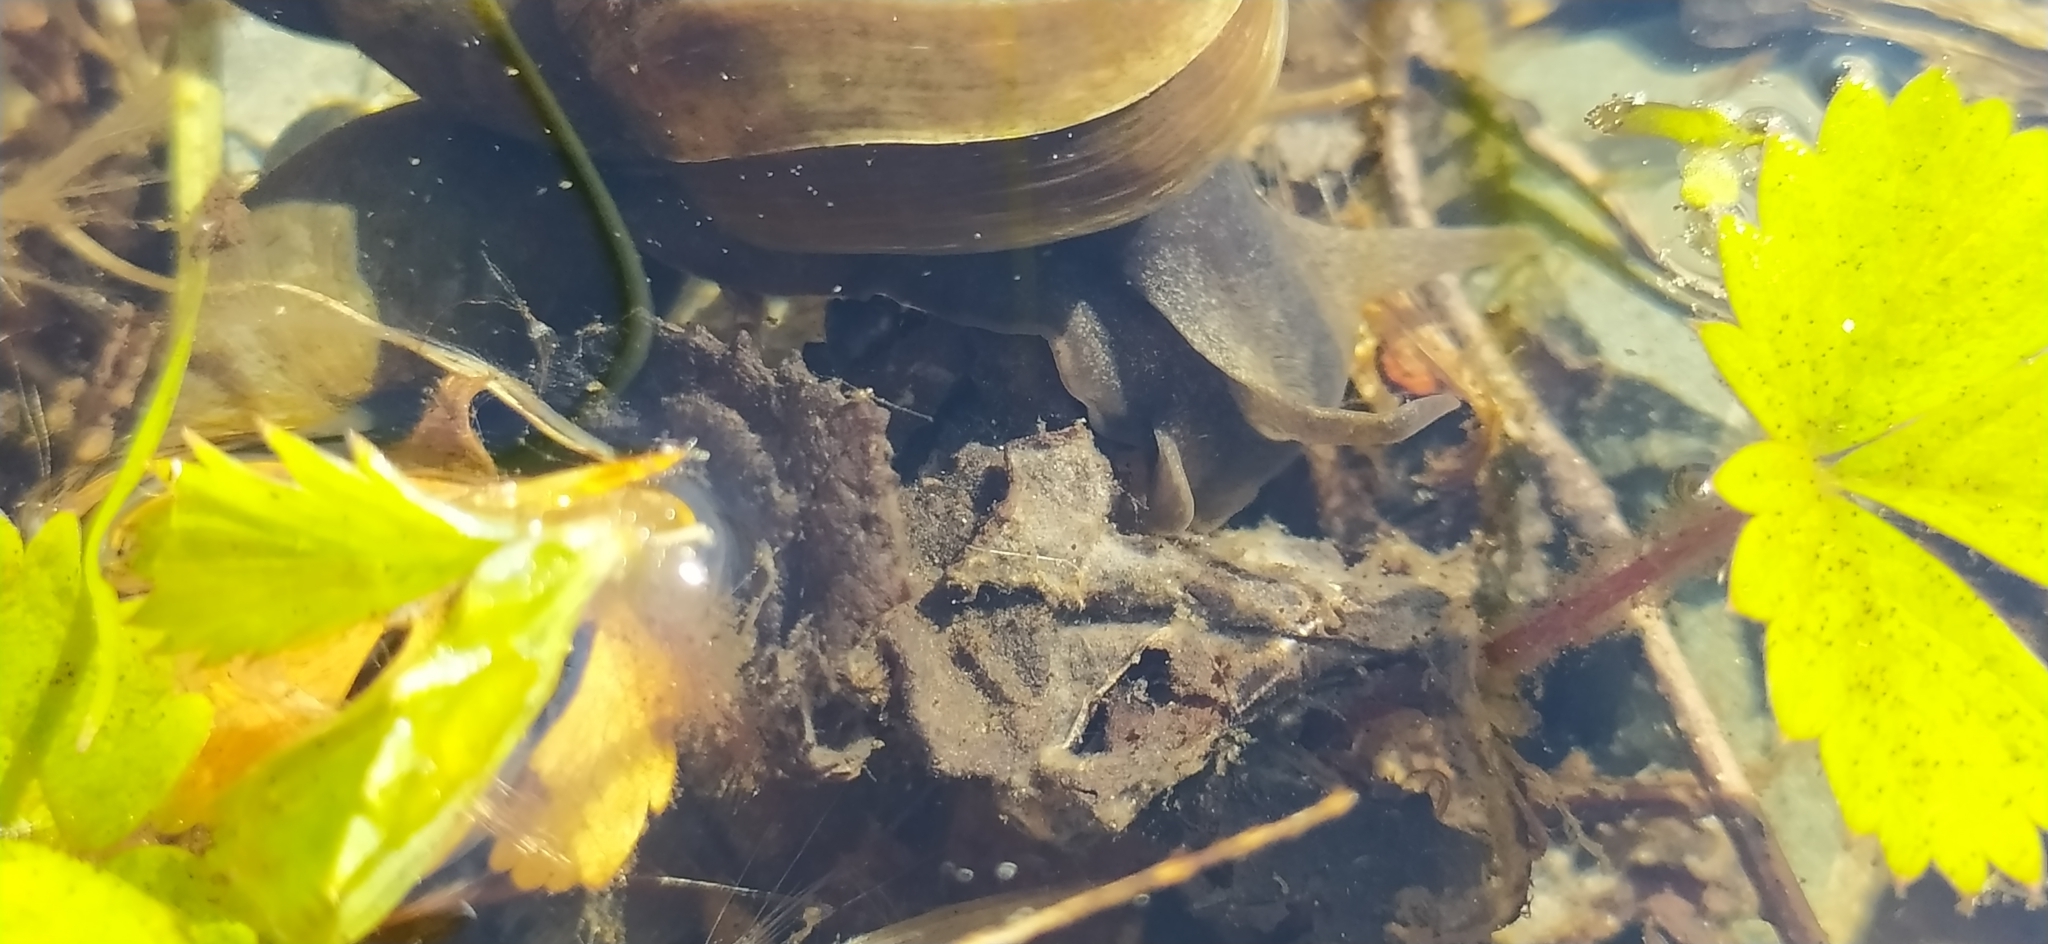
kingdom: Animalia
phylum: Mollusca
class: Gastropoda
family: Lymnaeidae
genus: Lymnaea
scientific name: Lymnaea stagnalis
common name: Great pond snail
